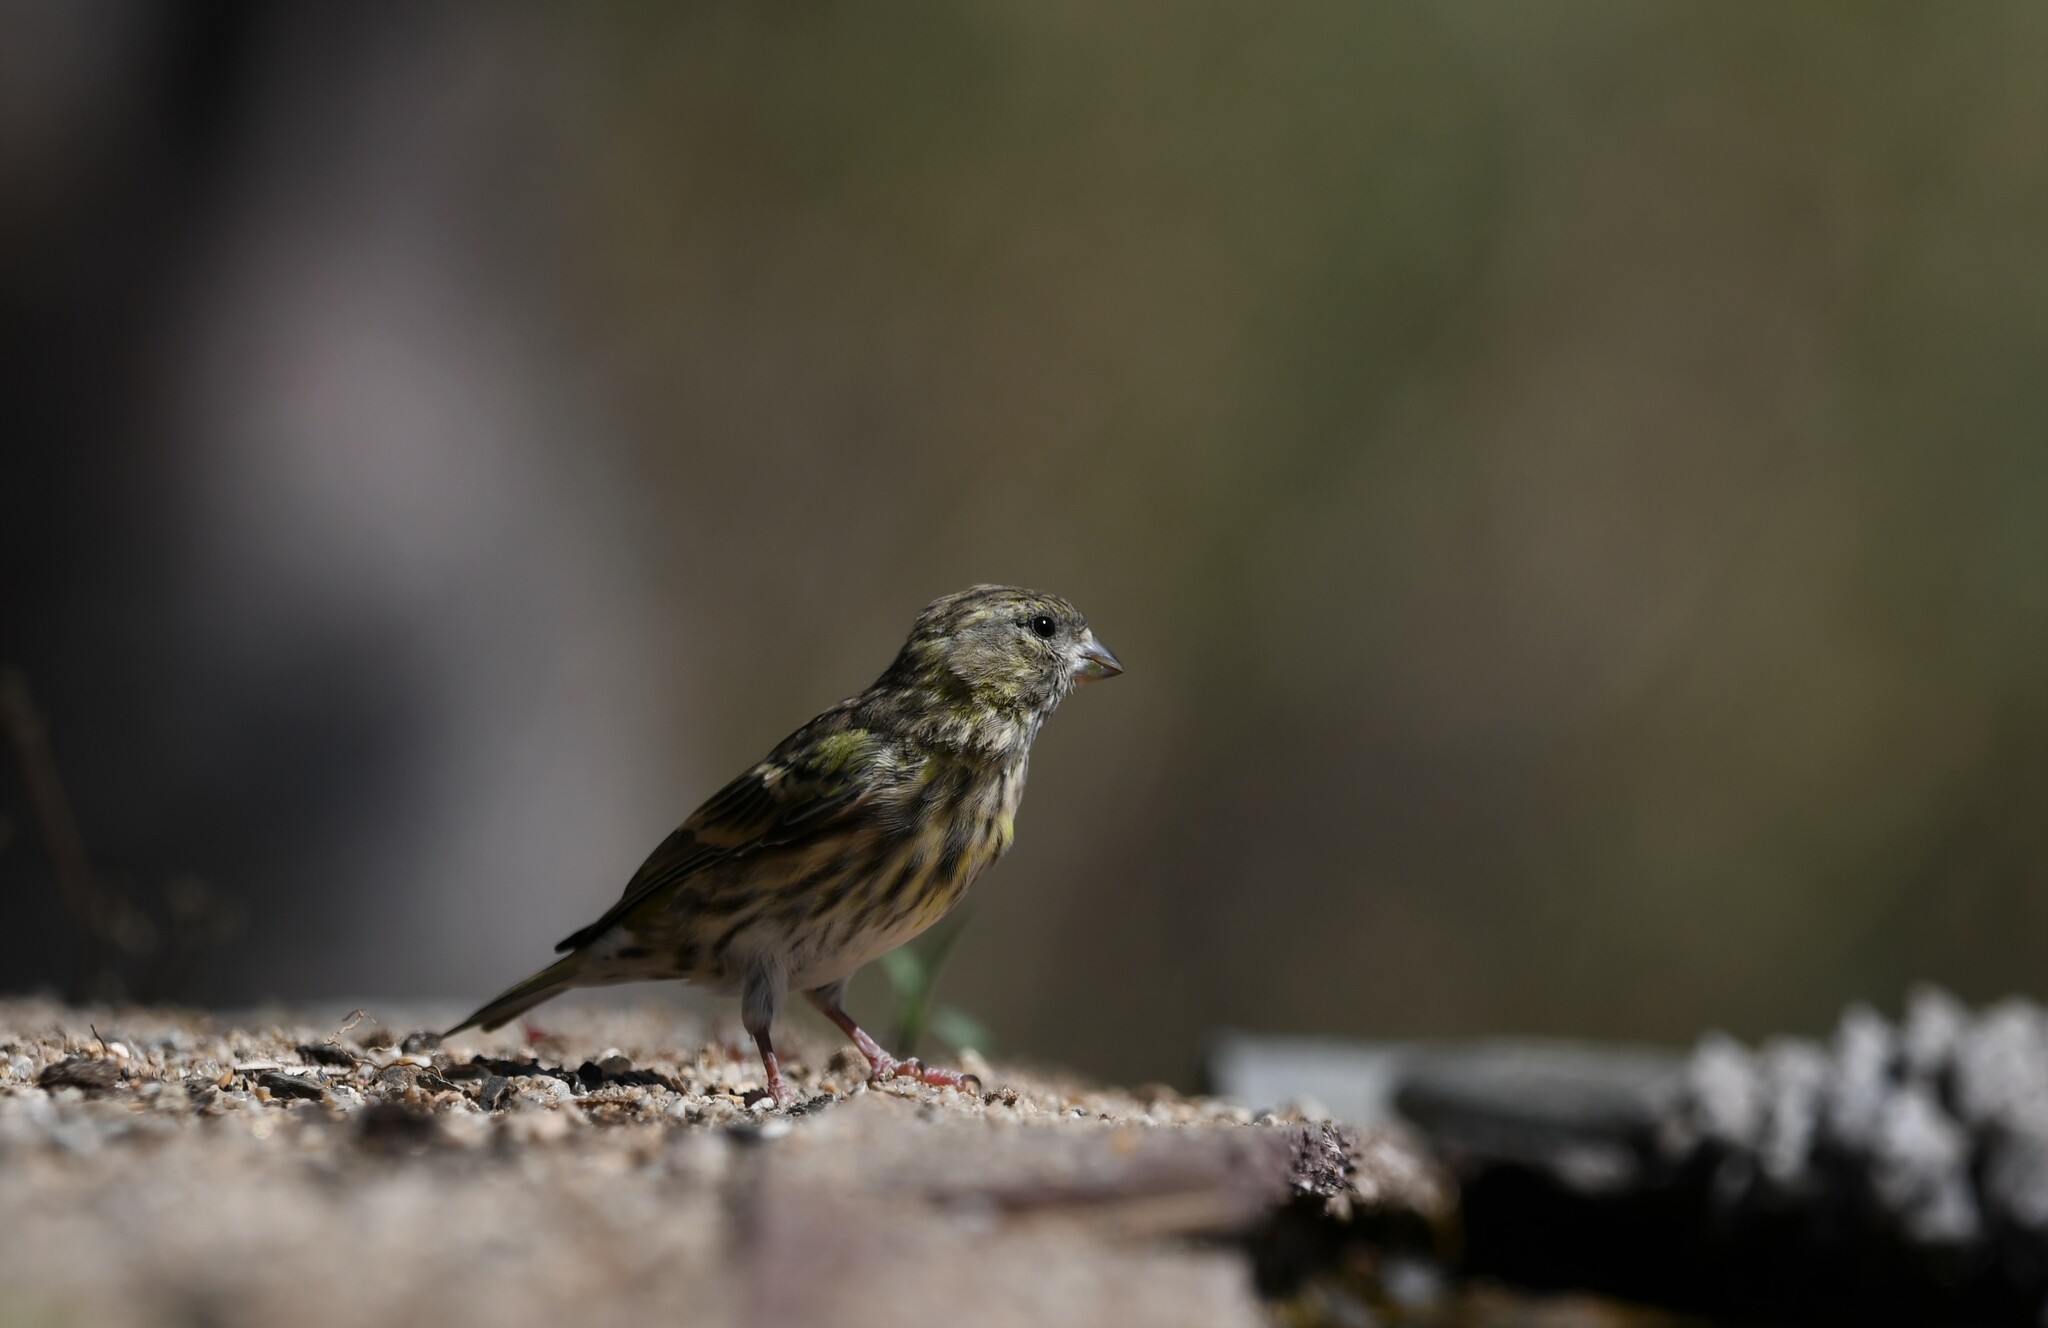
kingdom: Animalia
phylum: Chordata
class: Aves
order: Passeriformes
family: Fringillidae
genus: Serinus
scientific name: Serinus serinus
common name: European serin
